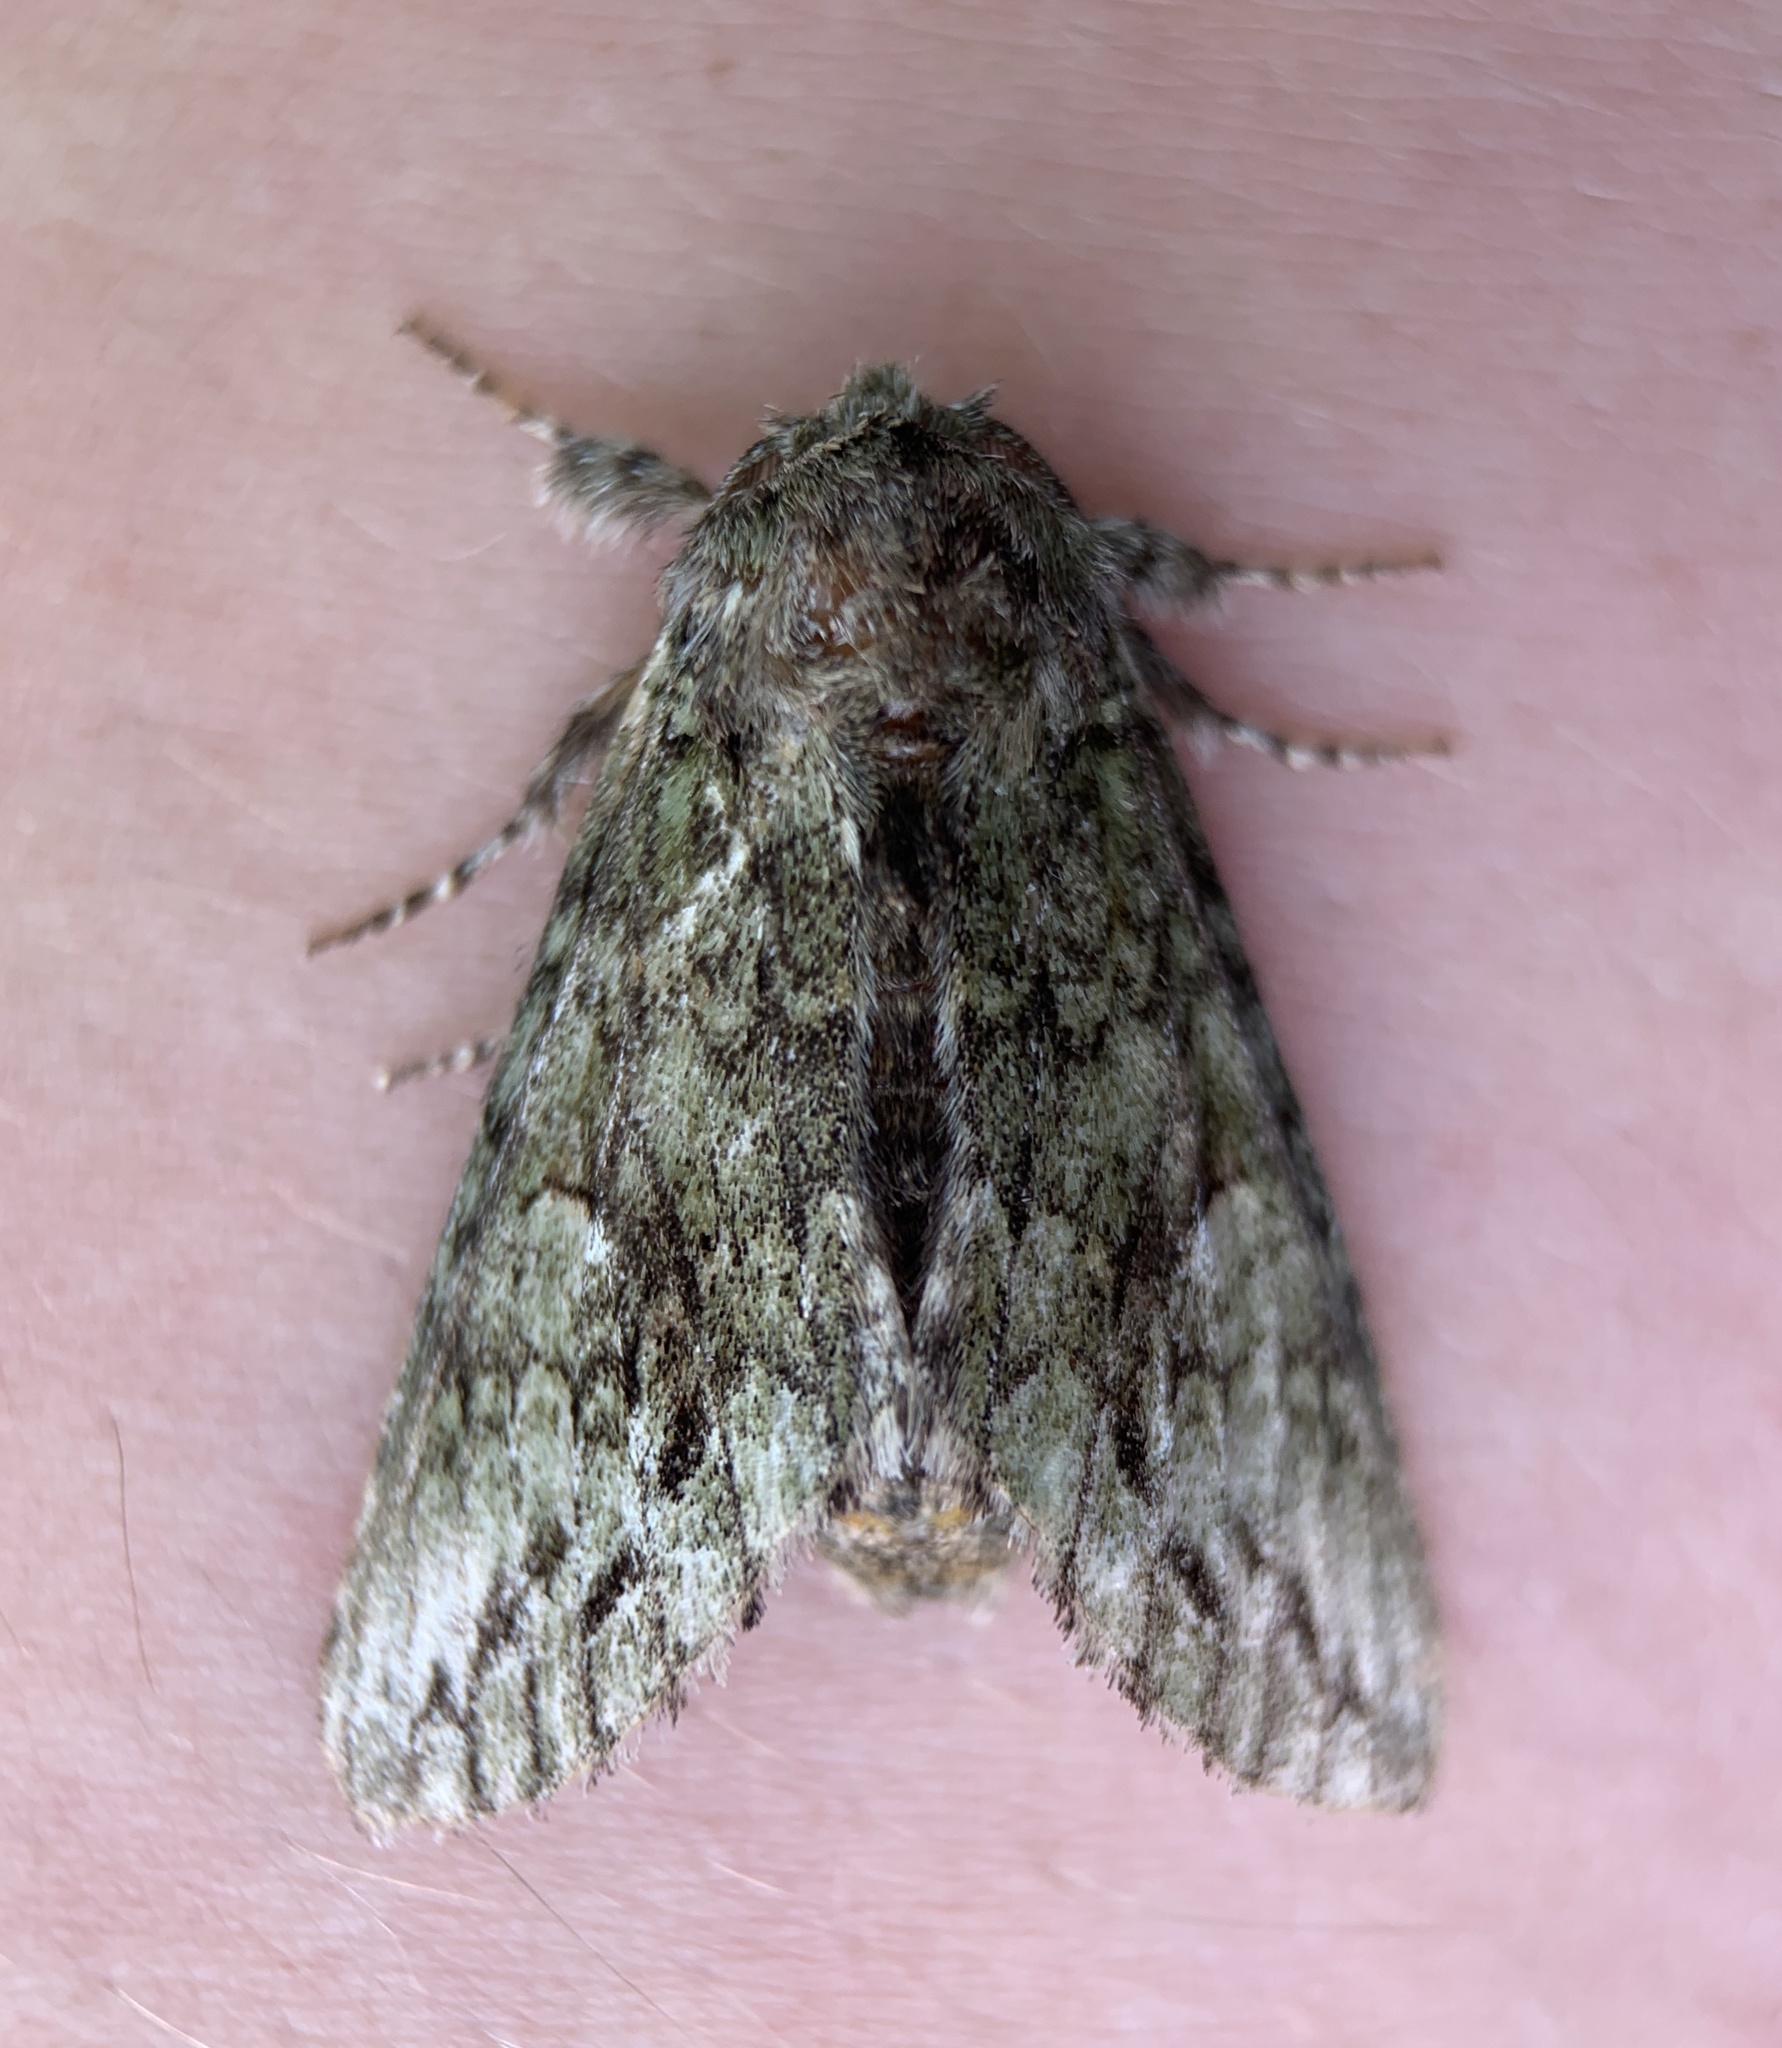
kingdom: Animalia
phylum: Arthropoda
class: Insecta
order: Lepidoptera
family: Notodontidae
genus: Heterocampa
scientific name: Heterocampa
